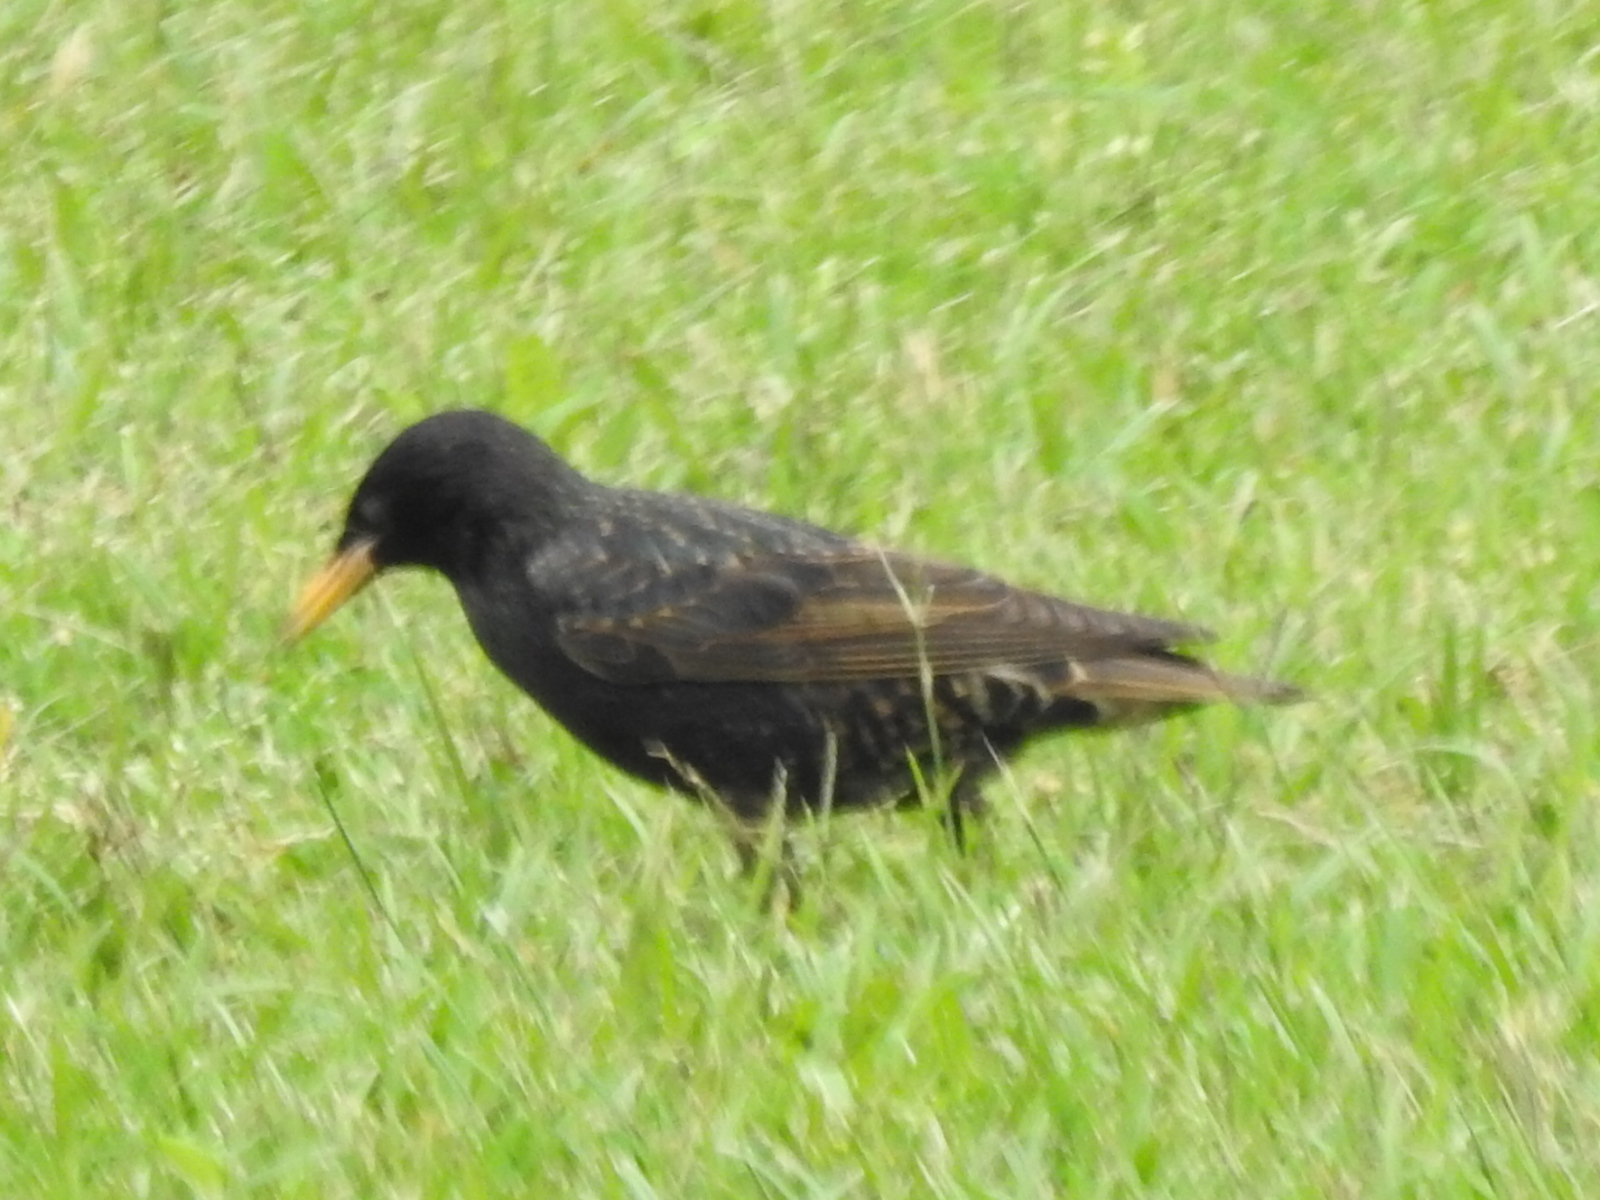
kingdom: Animalia
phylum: Chordata
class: Aves
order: Passeriformes
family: Sturnidae
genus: Sturnus
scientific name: Sturnus vulgaris
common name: Common starling
